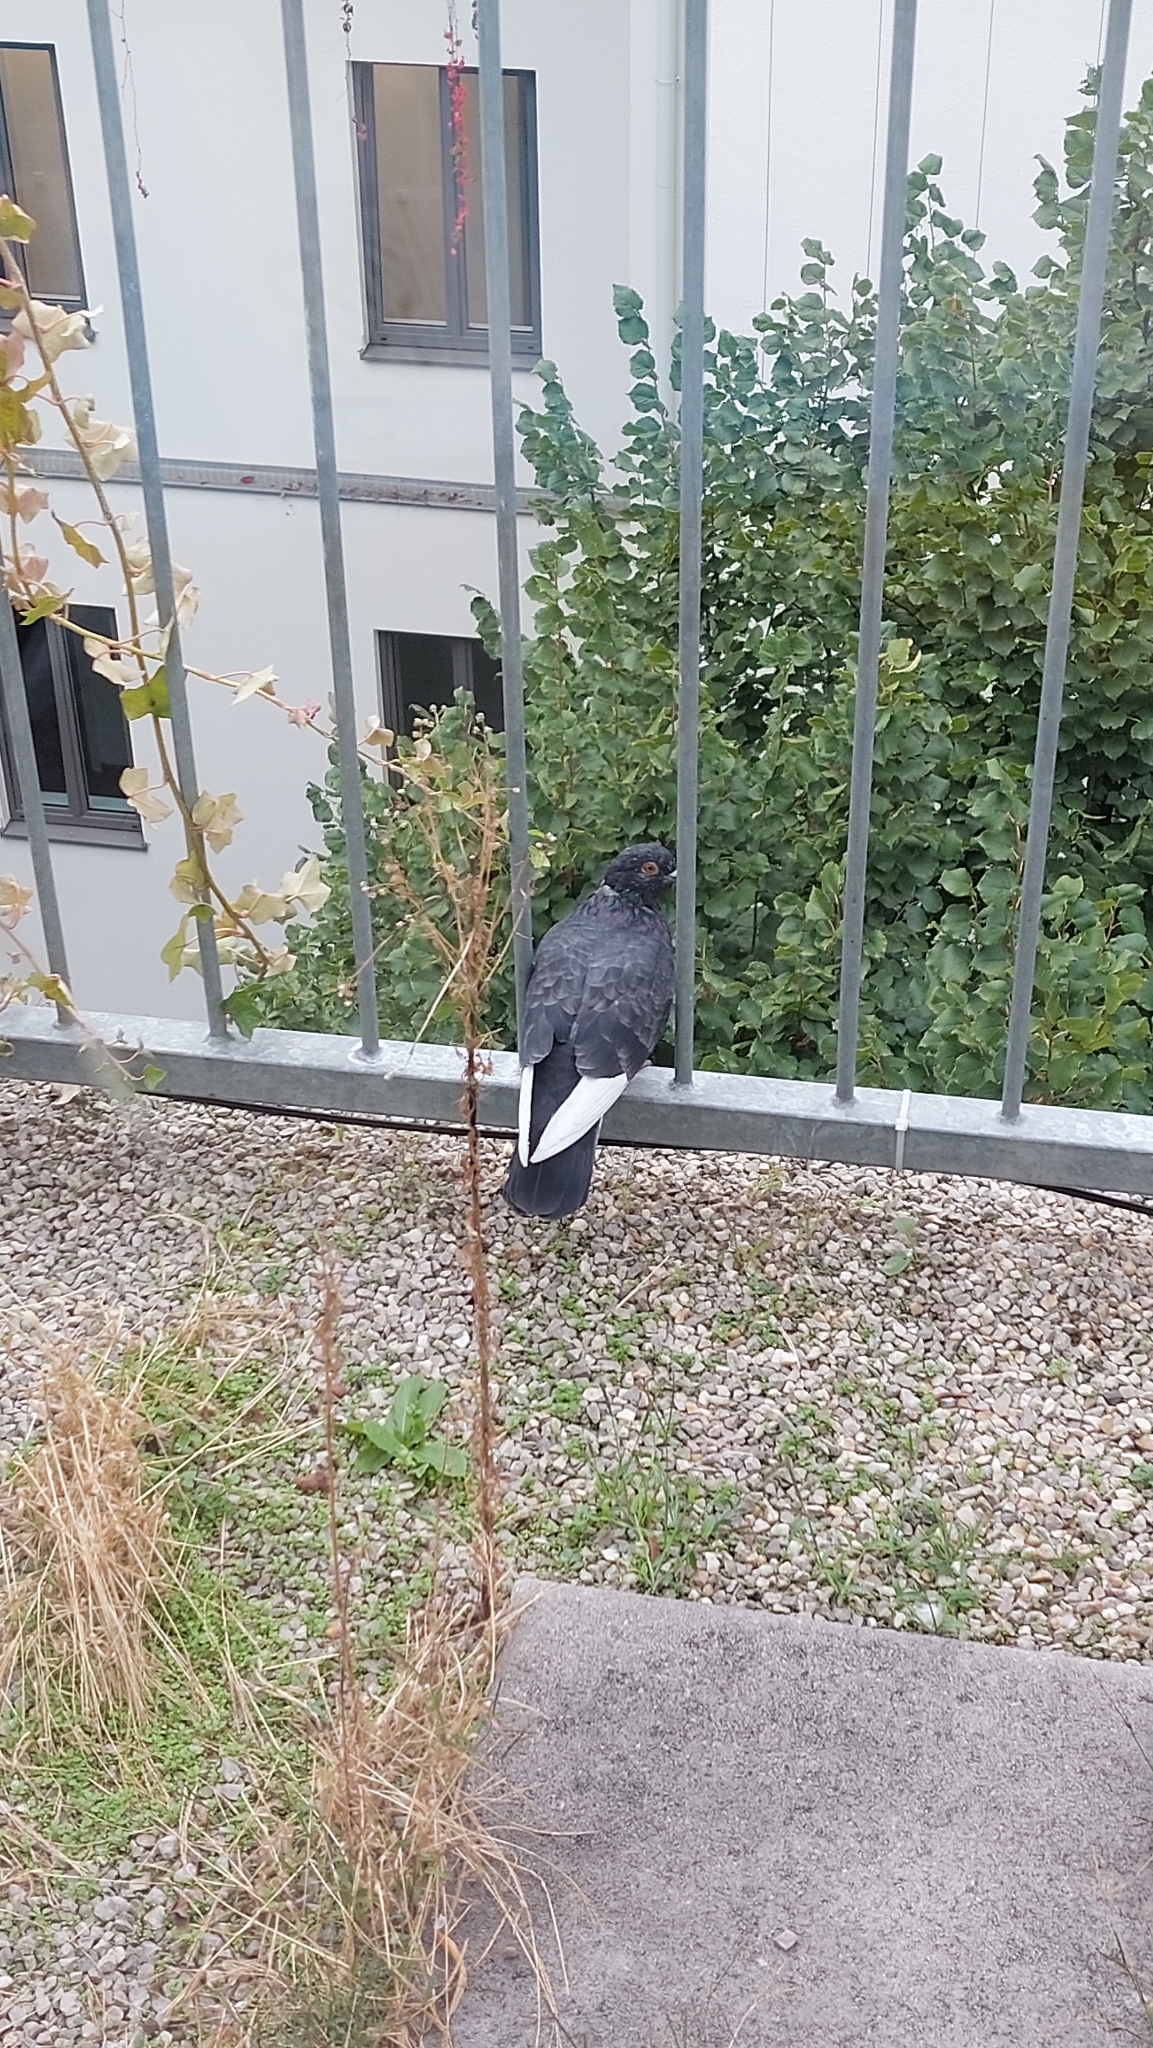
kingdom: Animalia
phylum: Chordata
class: Aves
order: Columbiformes
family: Columbidae
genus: Columba
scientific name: Columba livia
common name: Rock pigeon
